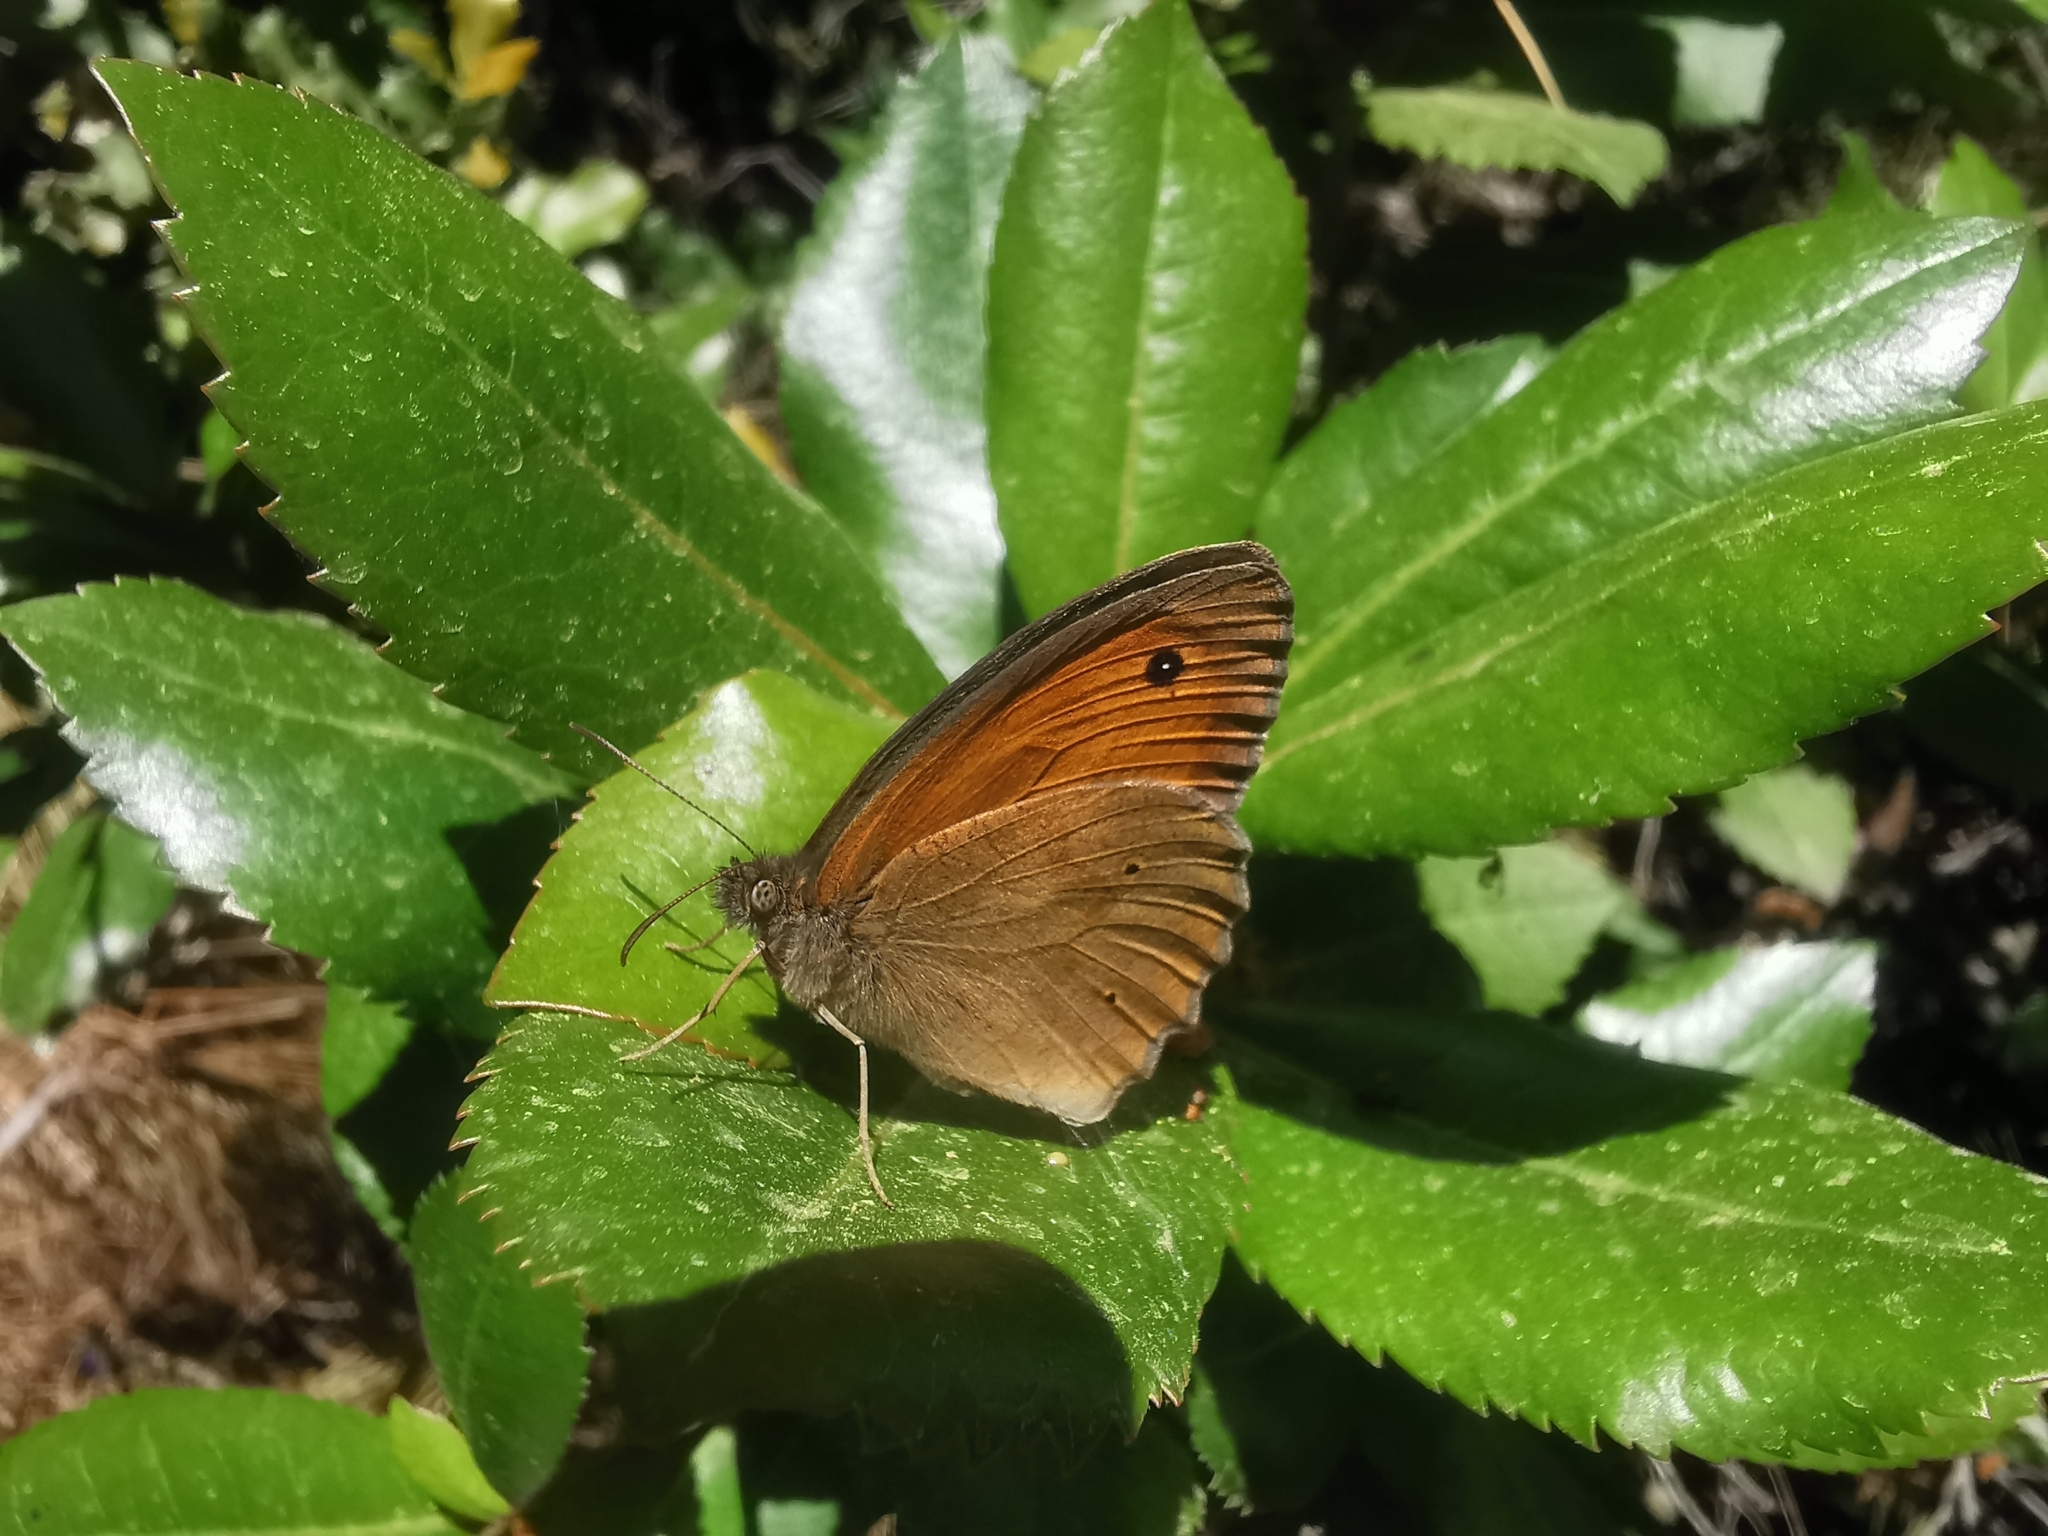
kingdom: Animalia
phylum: Arthropoda
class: Insecta
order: Lepidoptera
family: Nymphalidae
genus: Maniola
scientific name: Maniola jurtina
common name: Meadow brown
